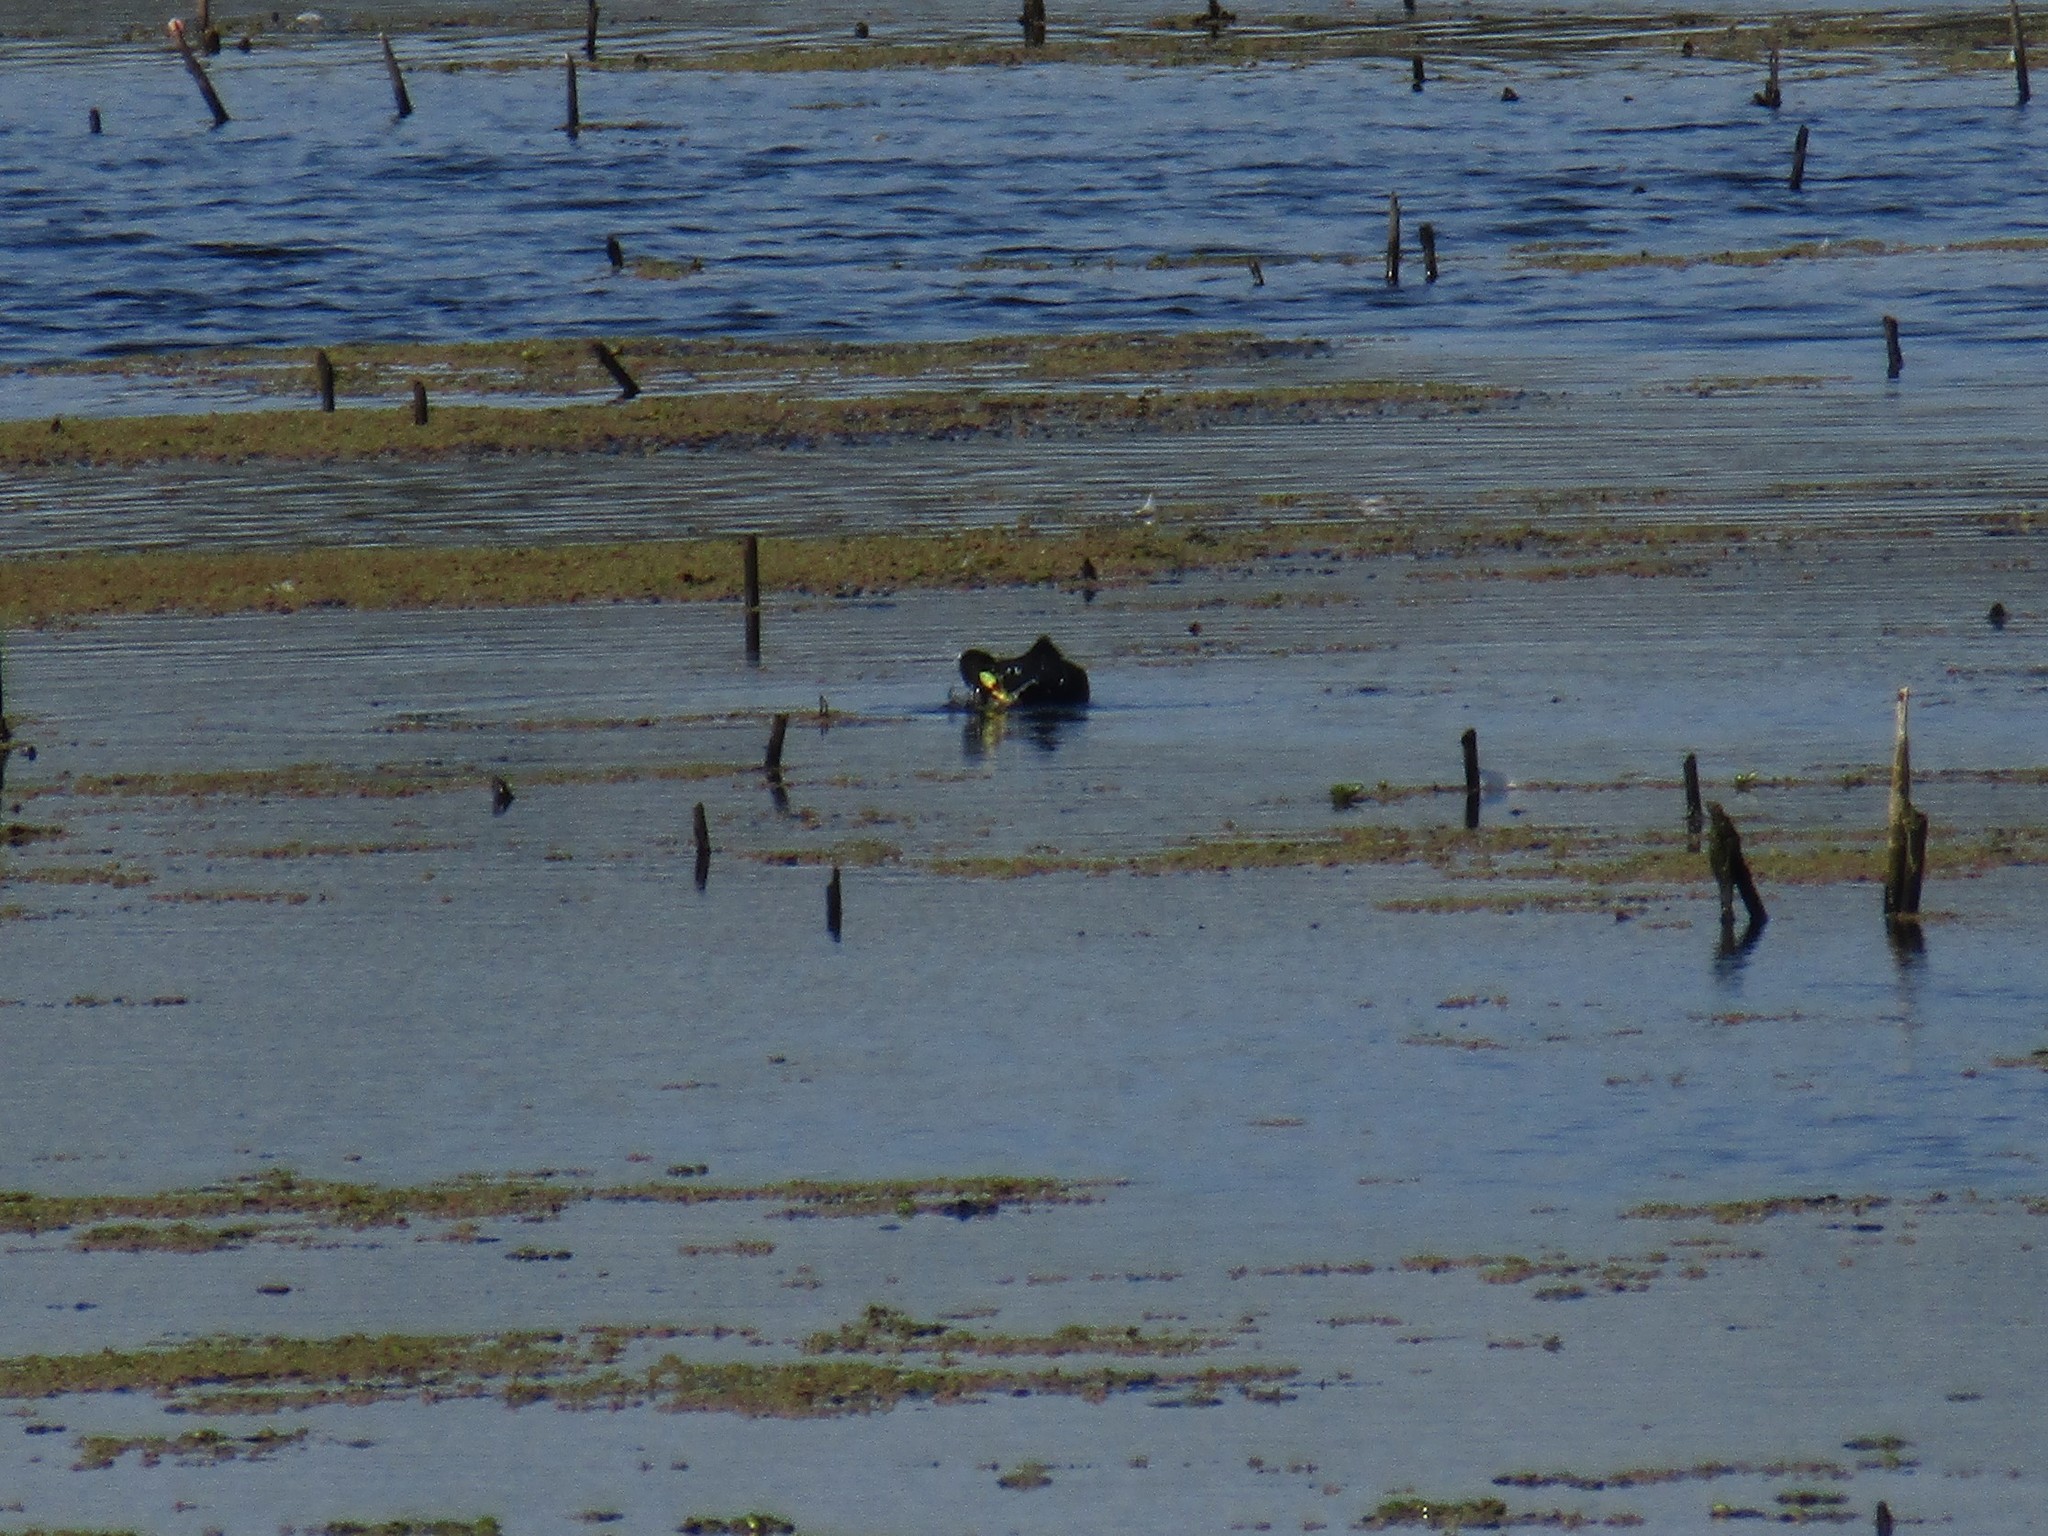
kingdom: Animalia
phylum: Chordata
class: Aves
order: Gruiformes
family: Rallidae
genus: Fulica
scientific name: Fulica armillata
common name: Red-gartered coot
